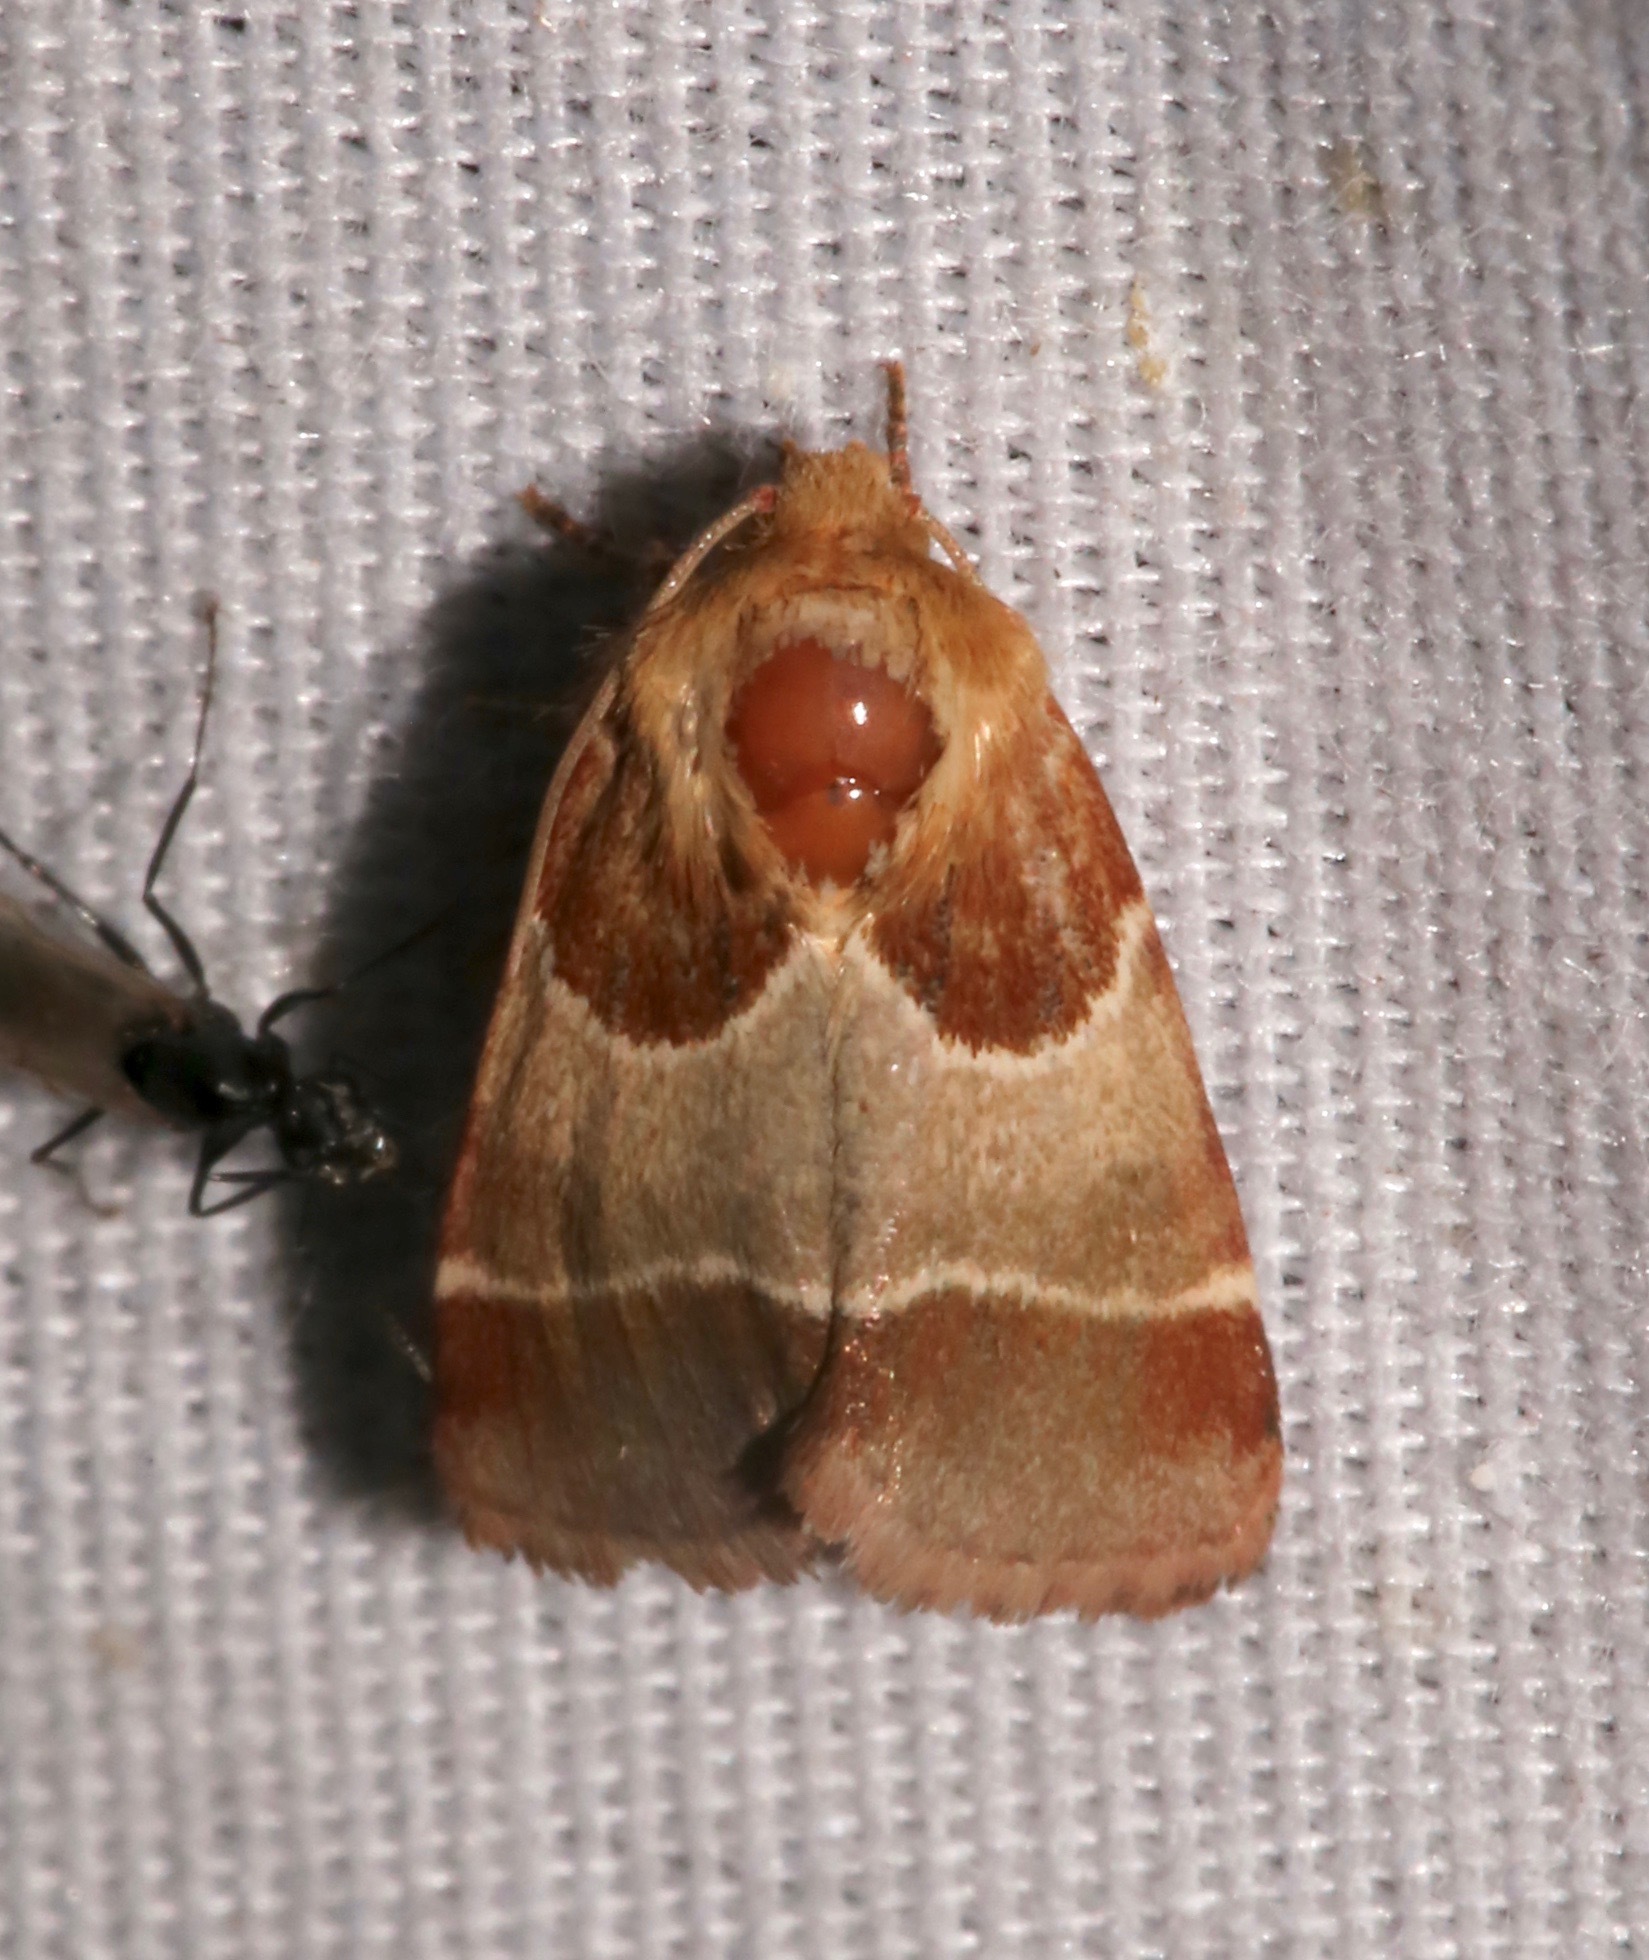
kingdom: Animalia
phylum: Arthropoda
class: Insecta
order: Lepidoptera
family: Noctuidae
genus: Schinia
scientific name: Schinia arcigera
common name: Arcigera flower moth
